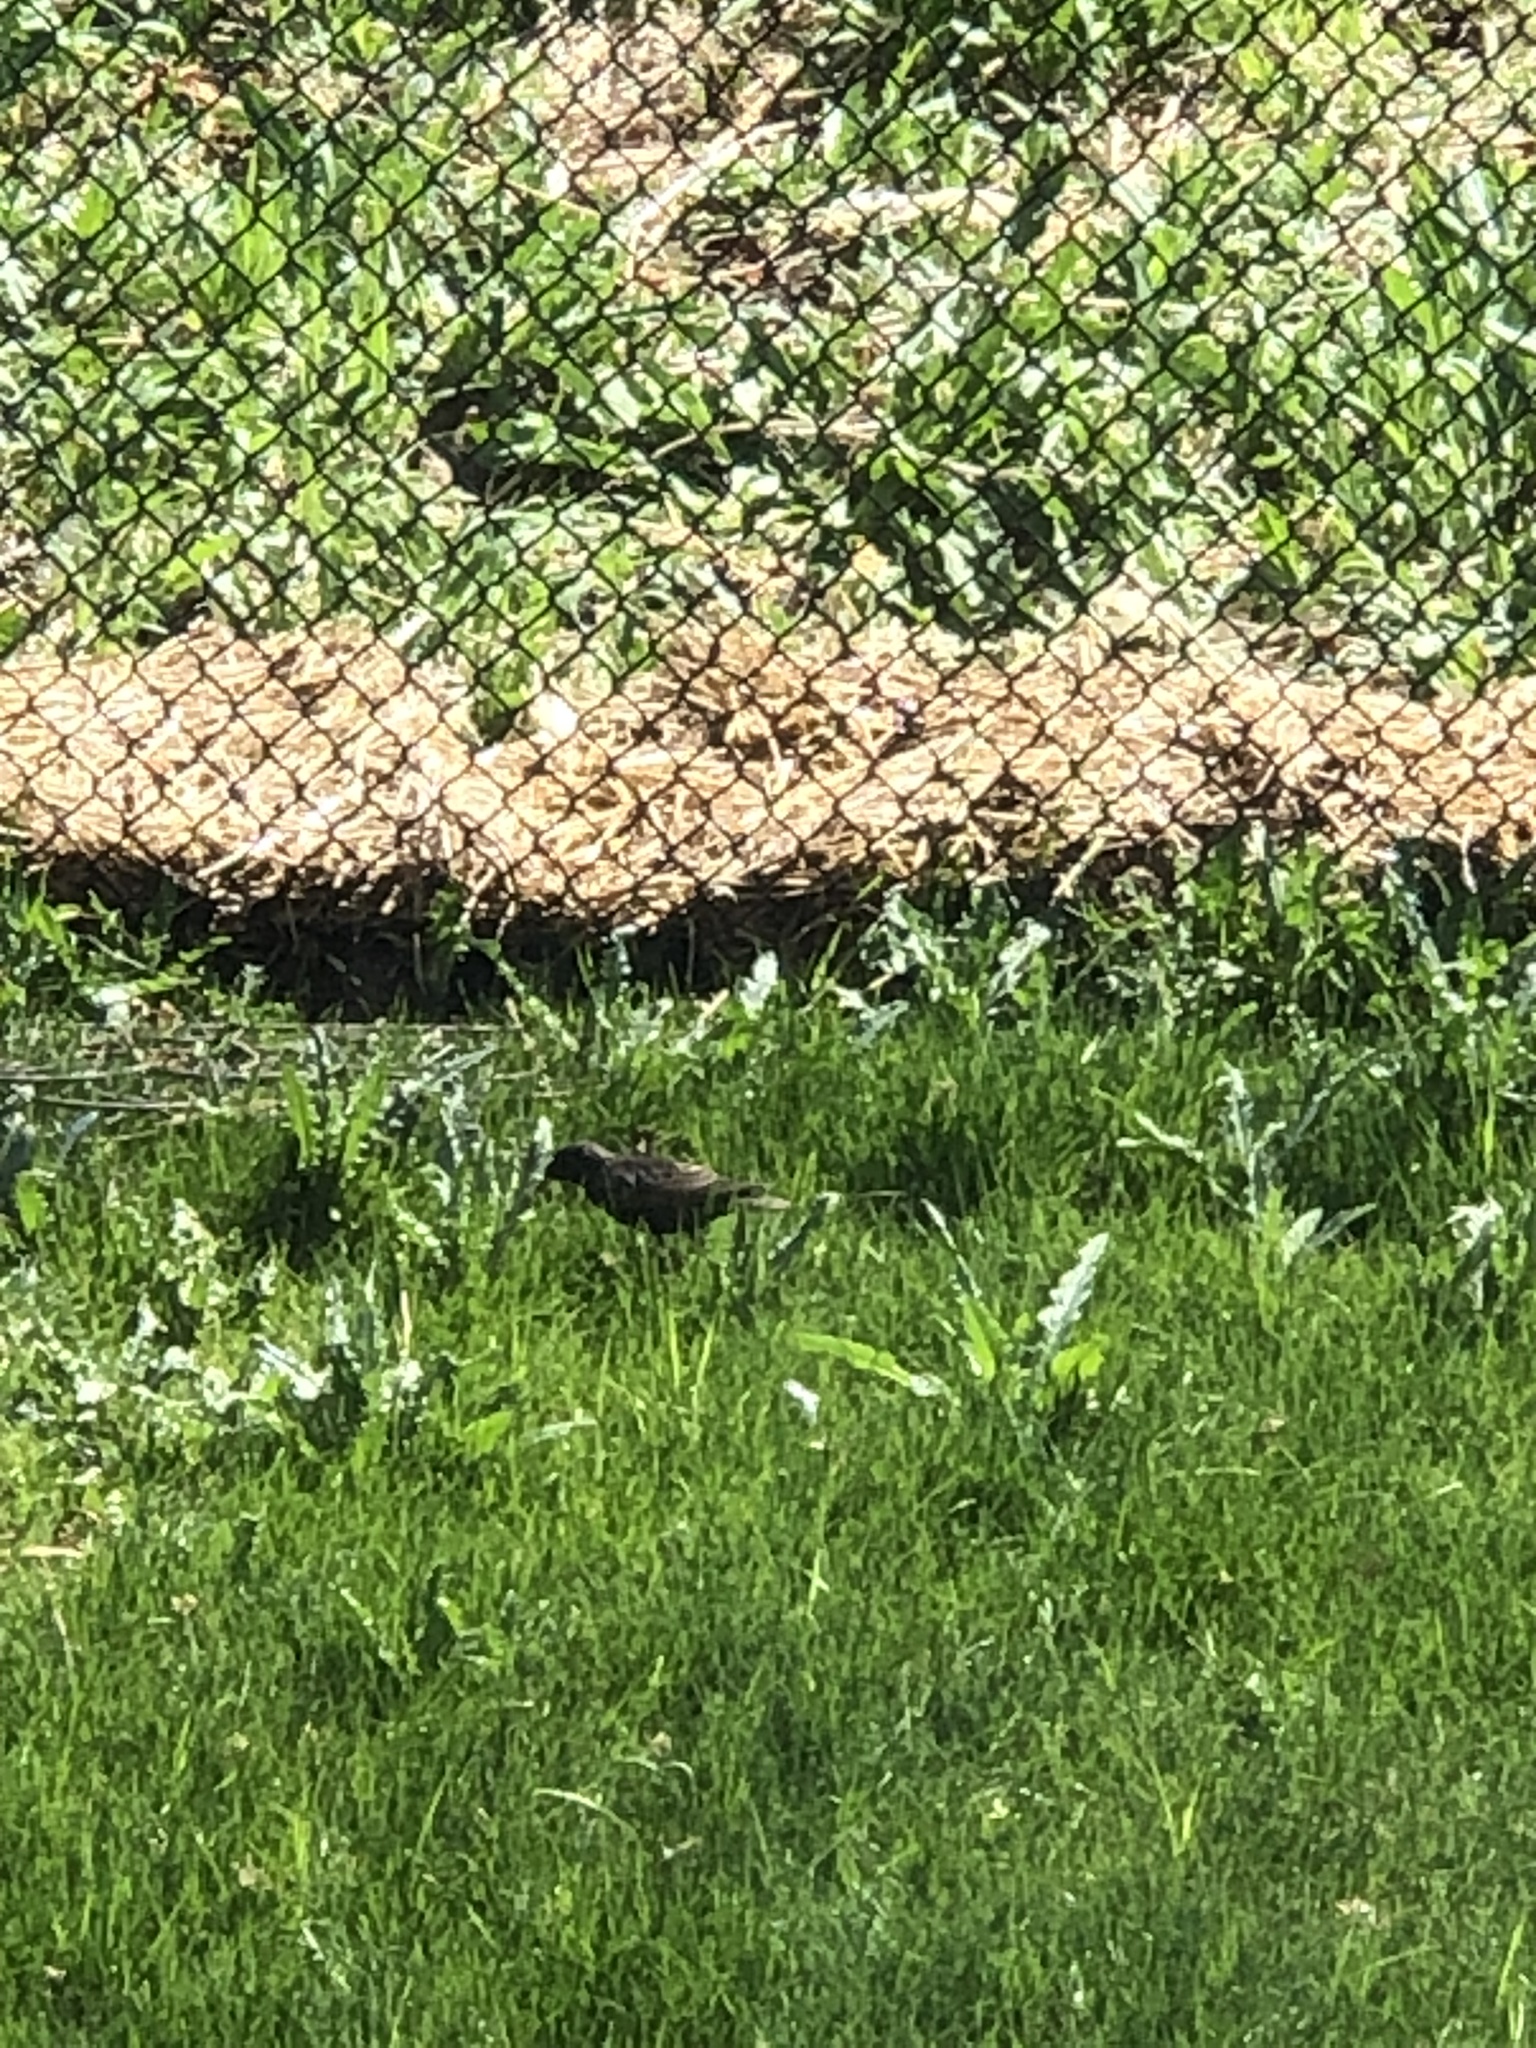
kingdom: Animalia
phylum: Chordata
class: Aves
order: Passeriformes
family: Sturnidae
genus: Sturnus
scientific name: Sturnus vulgaris
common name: Common starling
